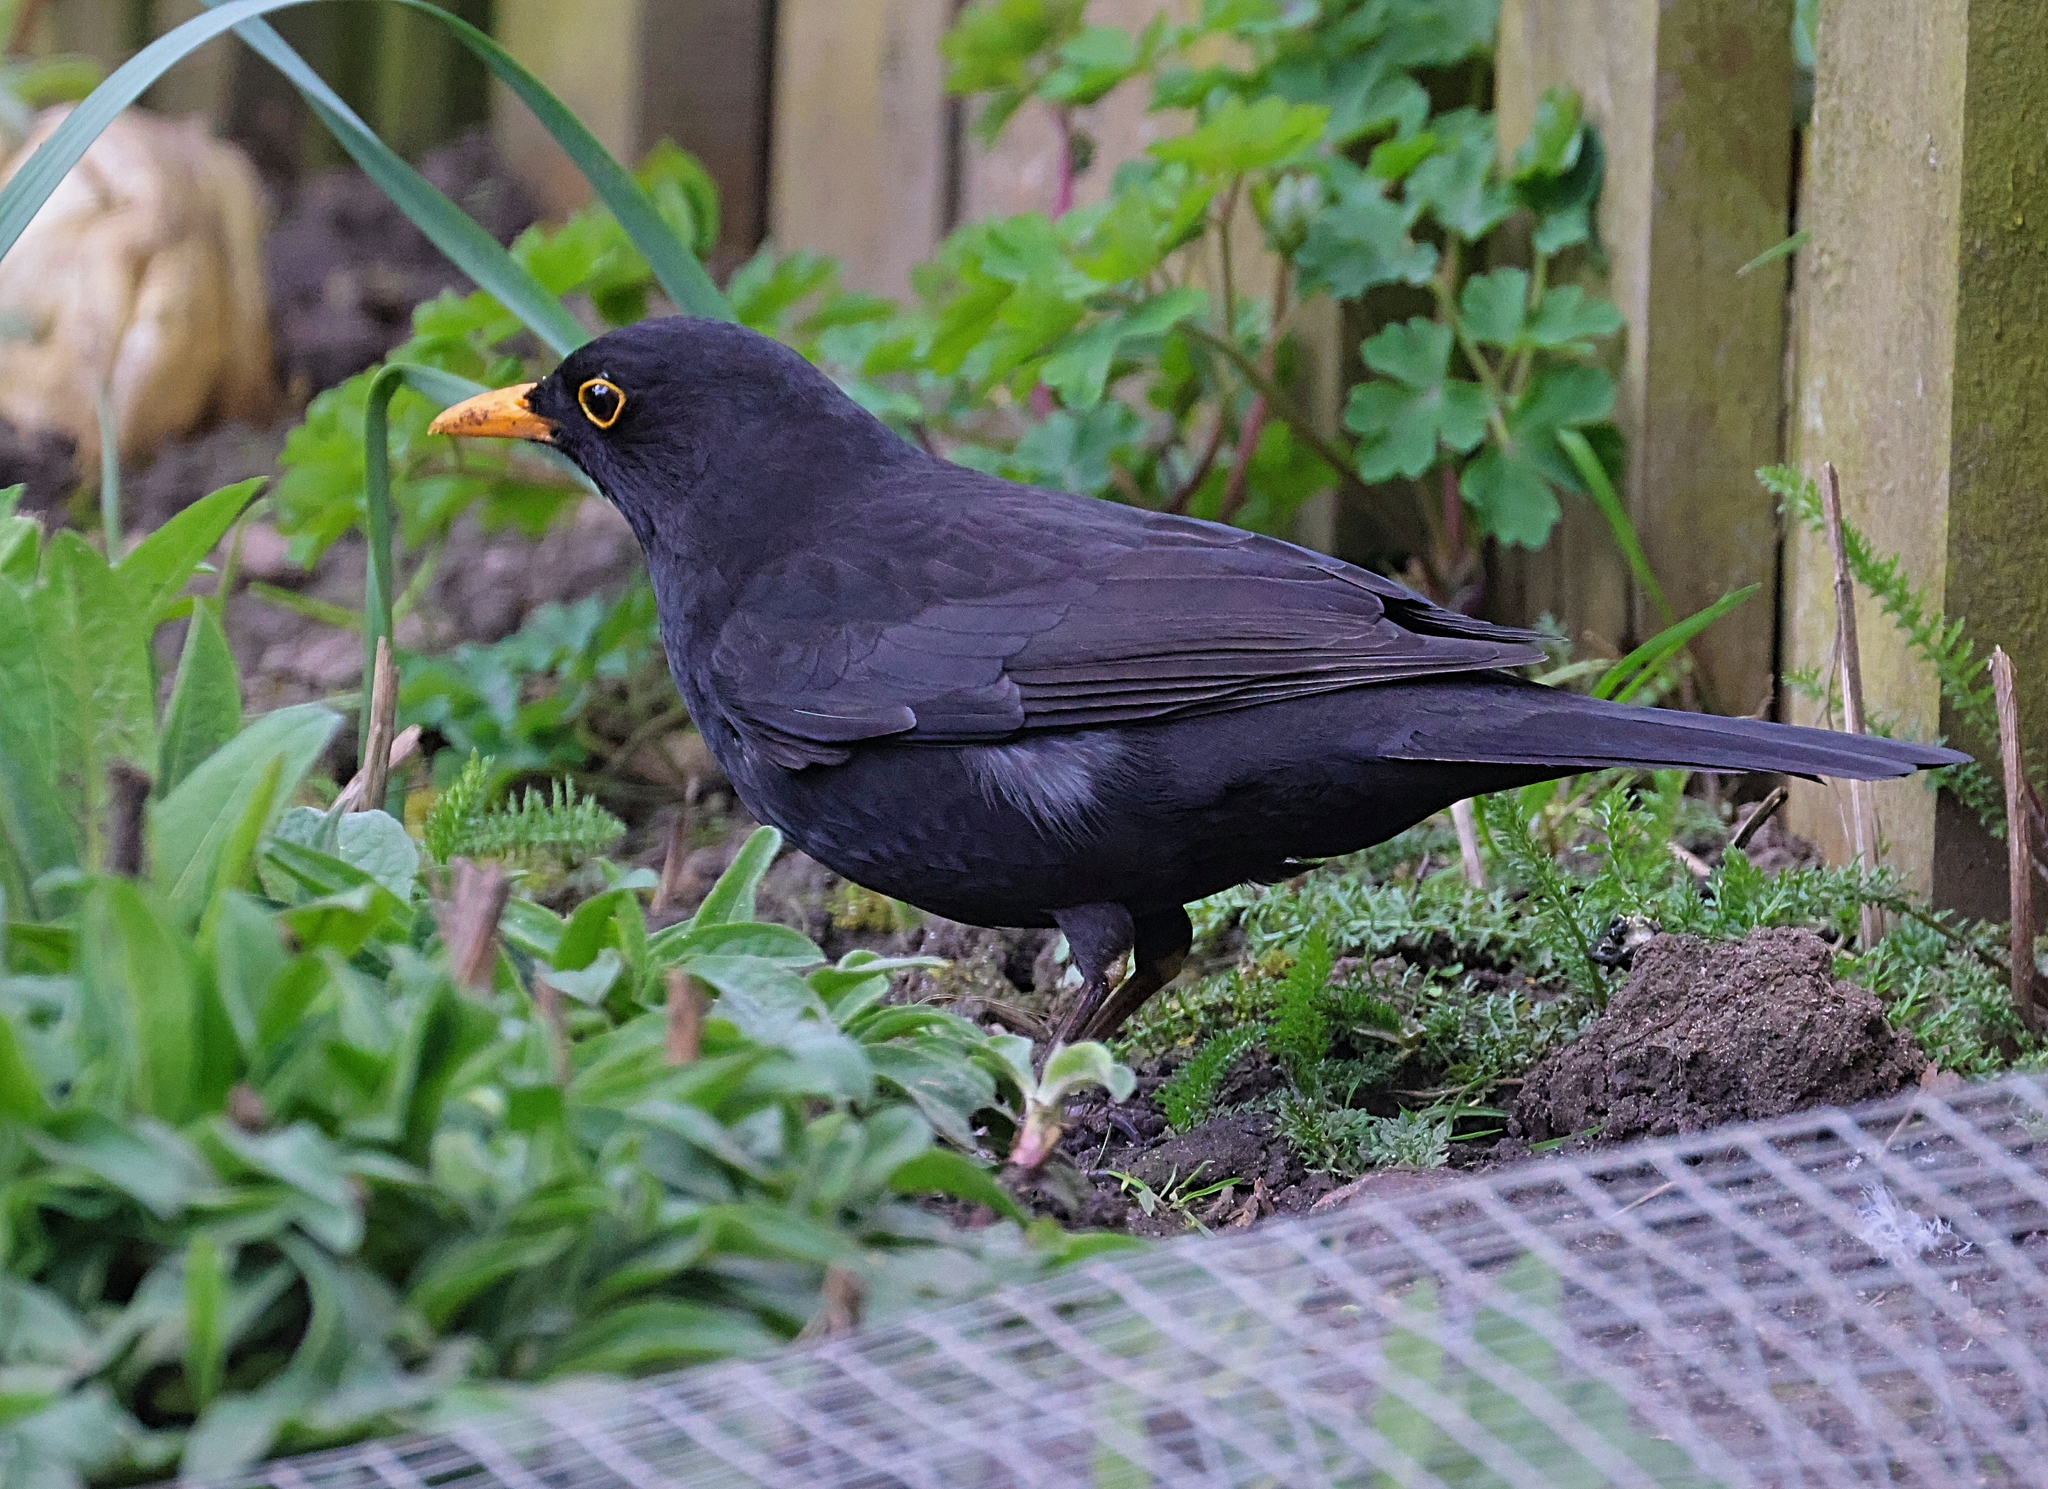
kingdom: Animalia
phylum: Chordata
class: Aves
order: Passeriformes
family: Turdidae
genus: Turdus
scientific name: Turdus merula
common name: Common blackbird
